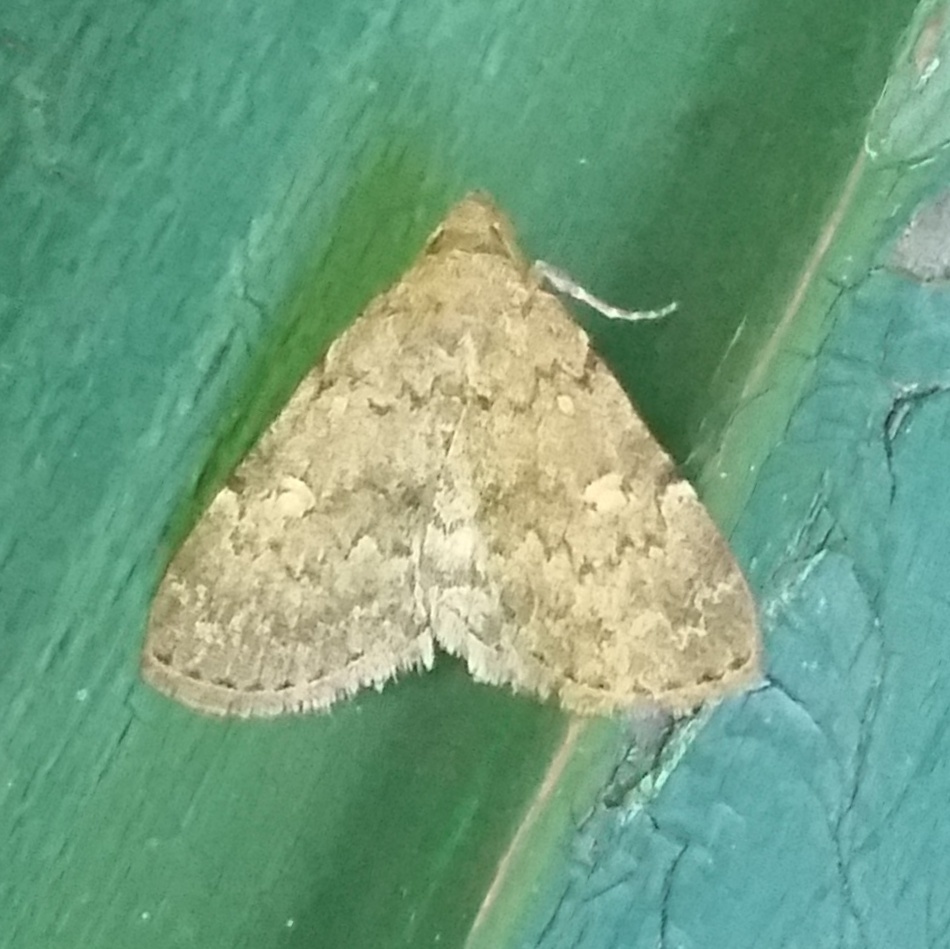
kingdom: Animalia
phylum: Arthropoda
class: Insecta
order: Lepidoptera
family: Erebidae
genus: Idia
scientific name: Idia aemula
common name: Common idia moth
